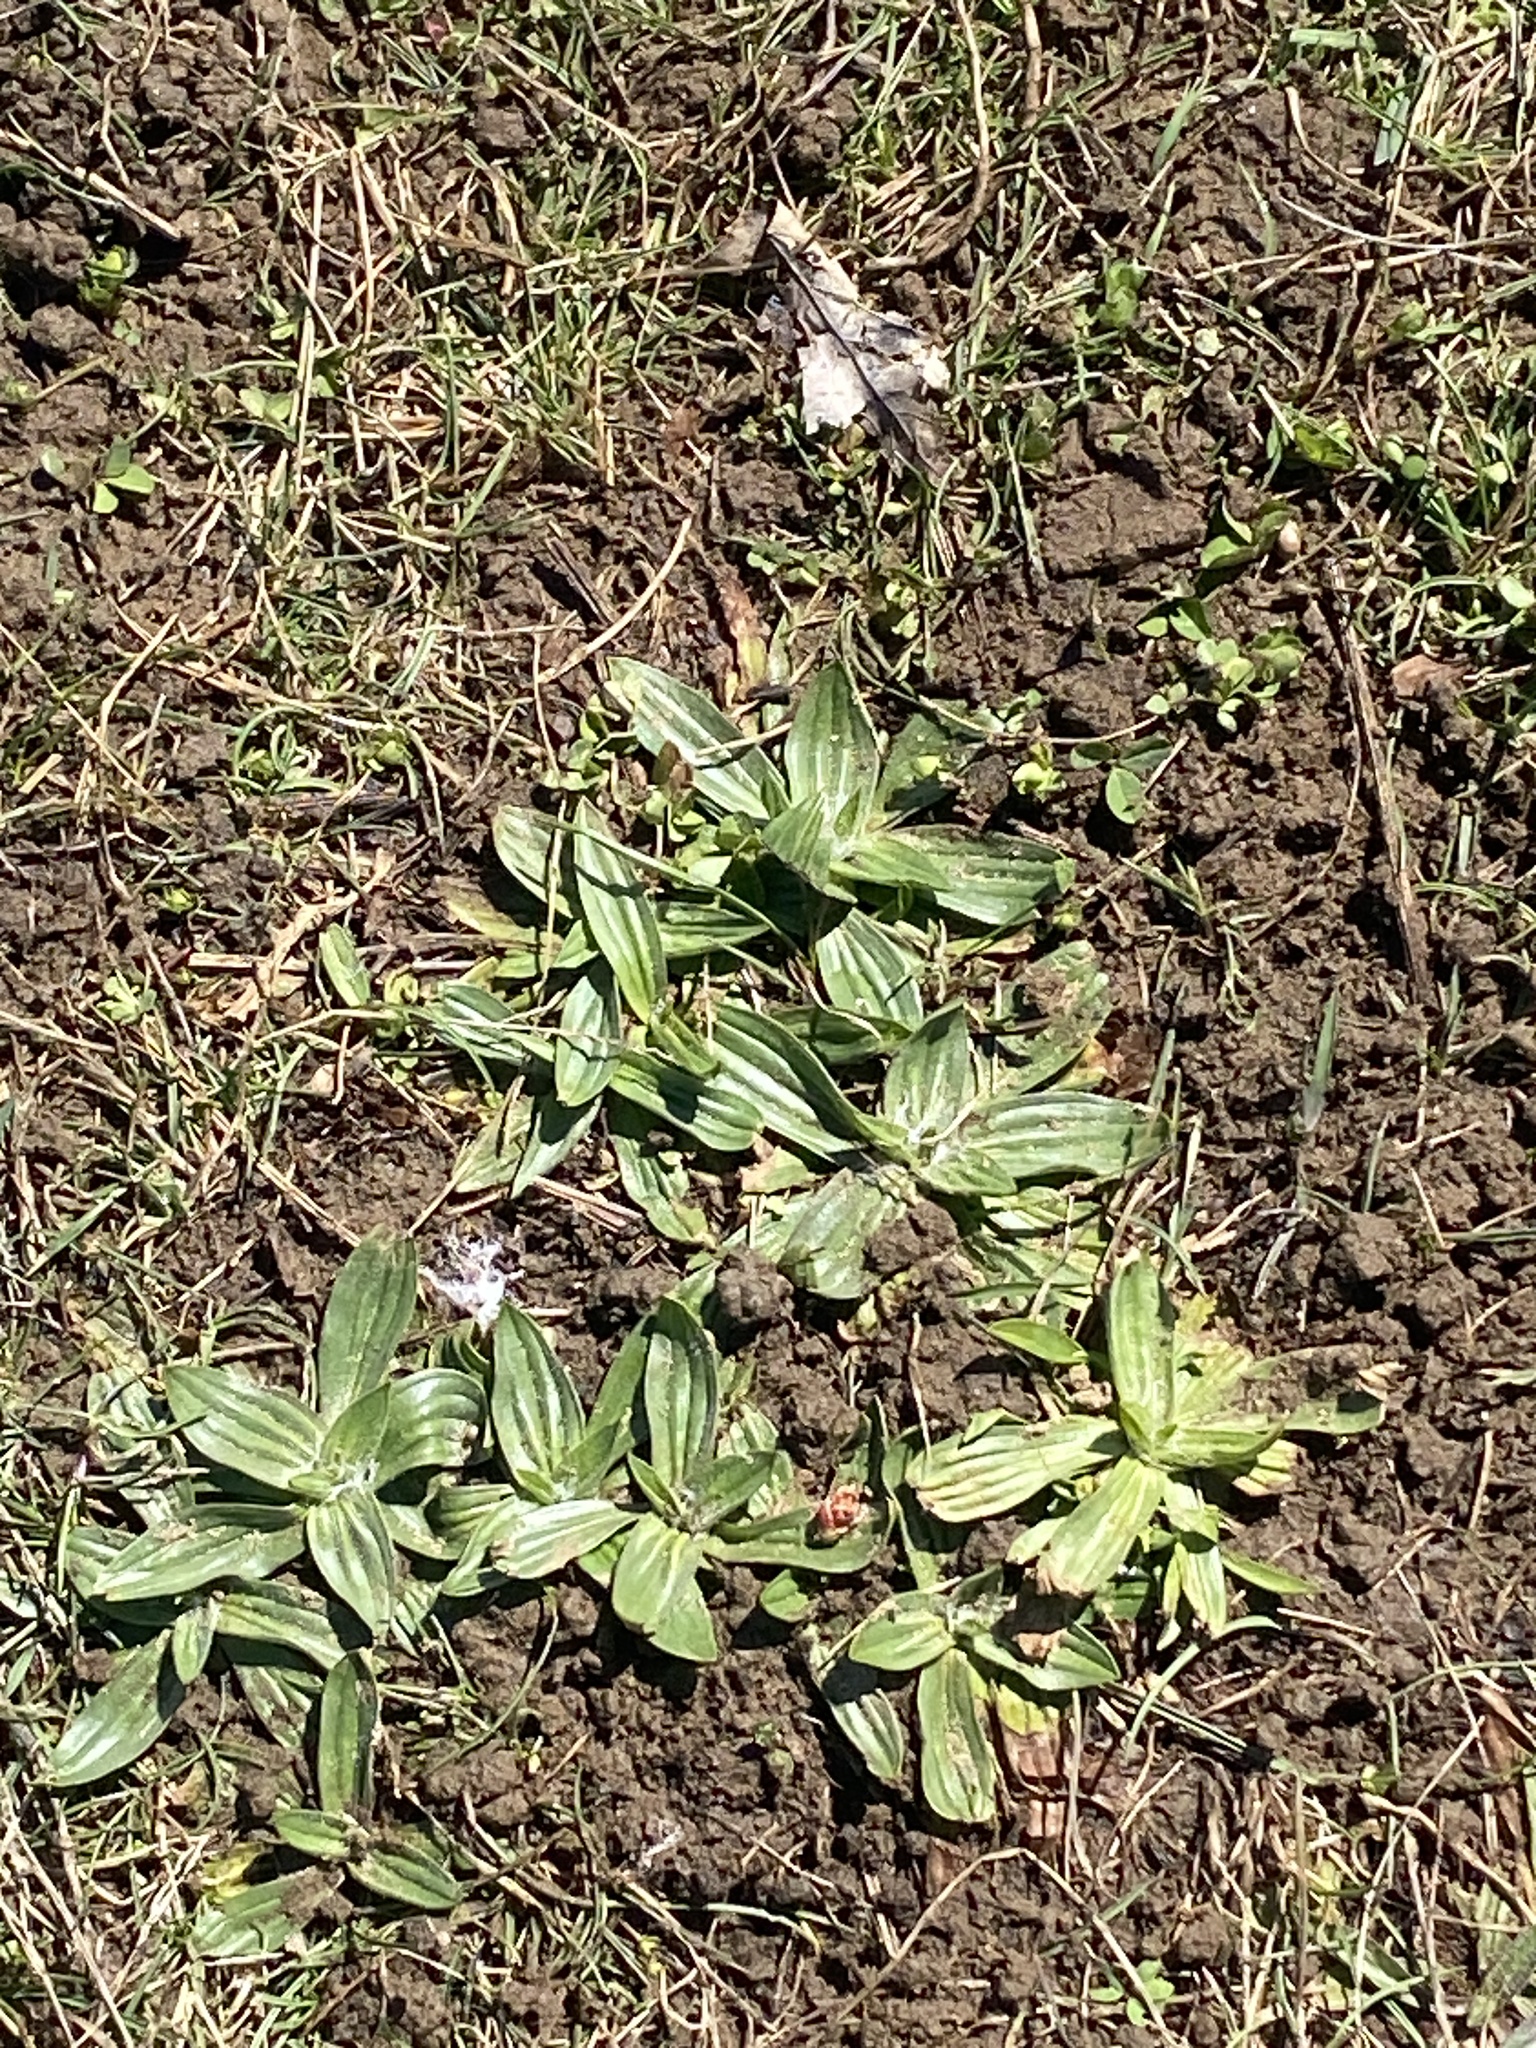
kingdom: Plantae
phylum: Tracheophyta
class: Magnoliopsida
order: Lamiales
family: Plantaginaceae
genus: Plantago
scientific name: Plantago lanceolata
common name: Ribwort plantain
